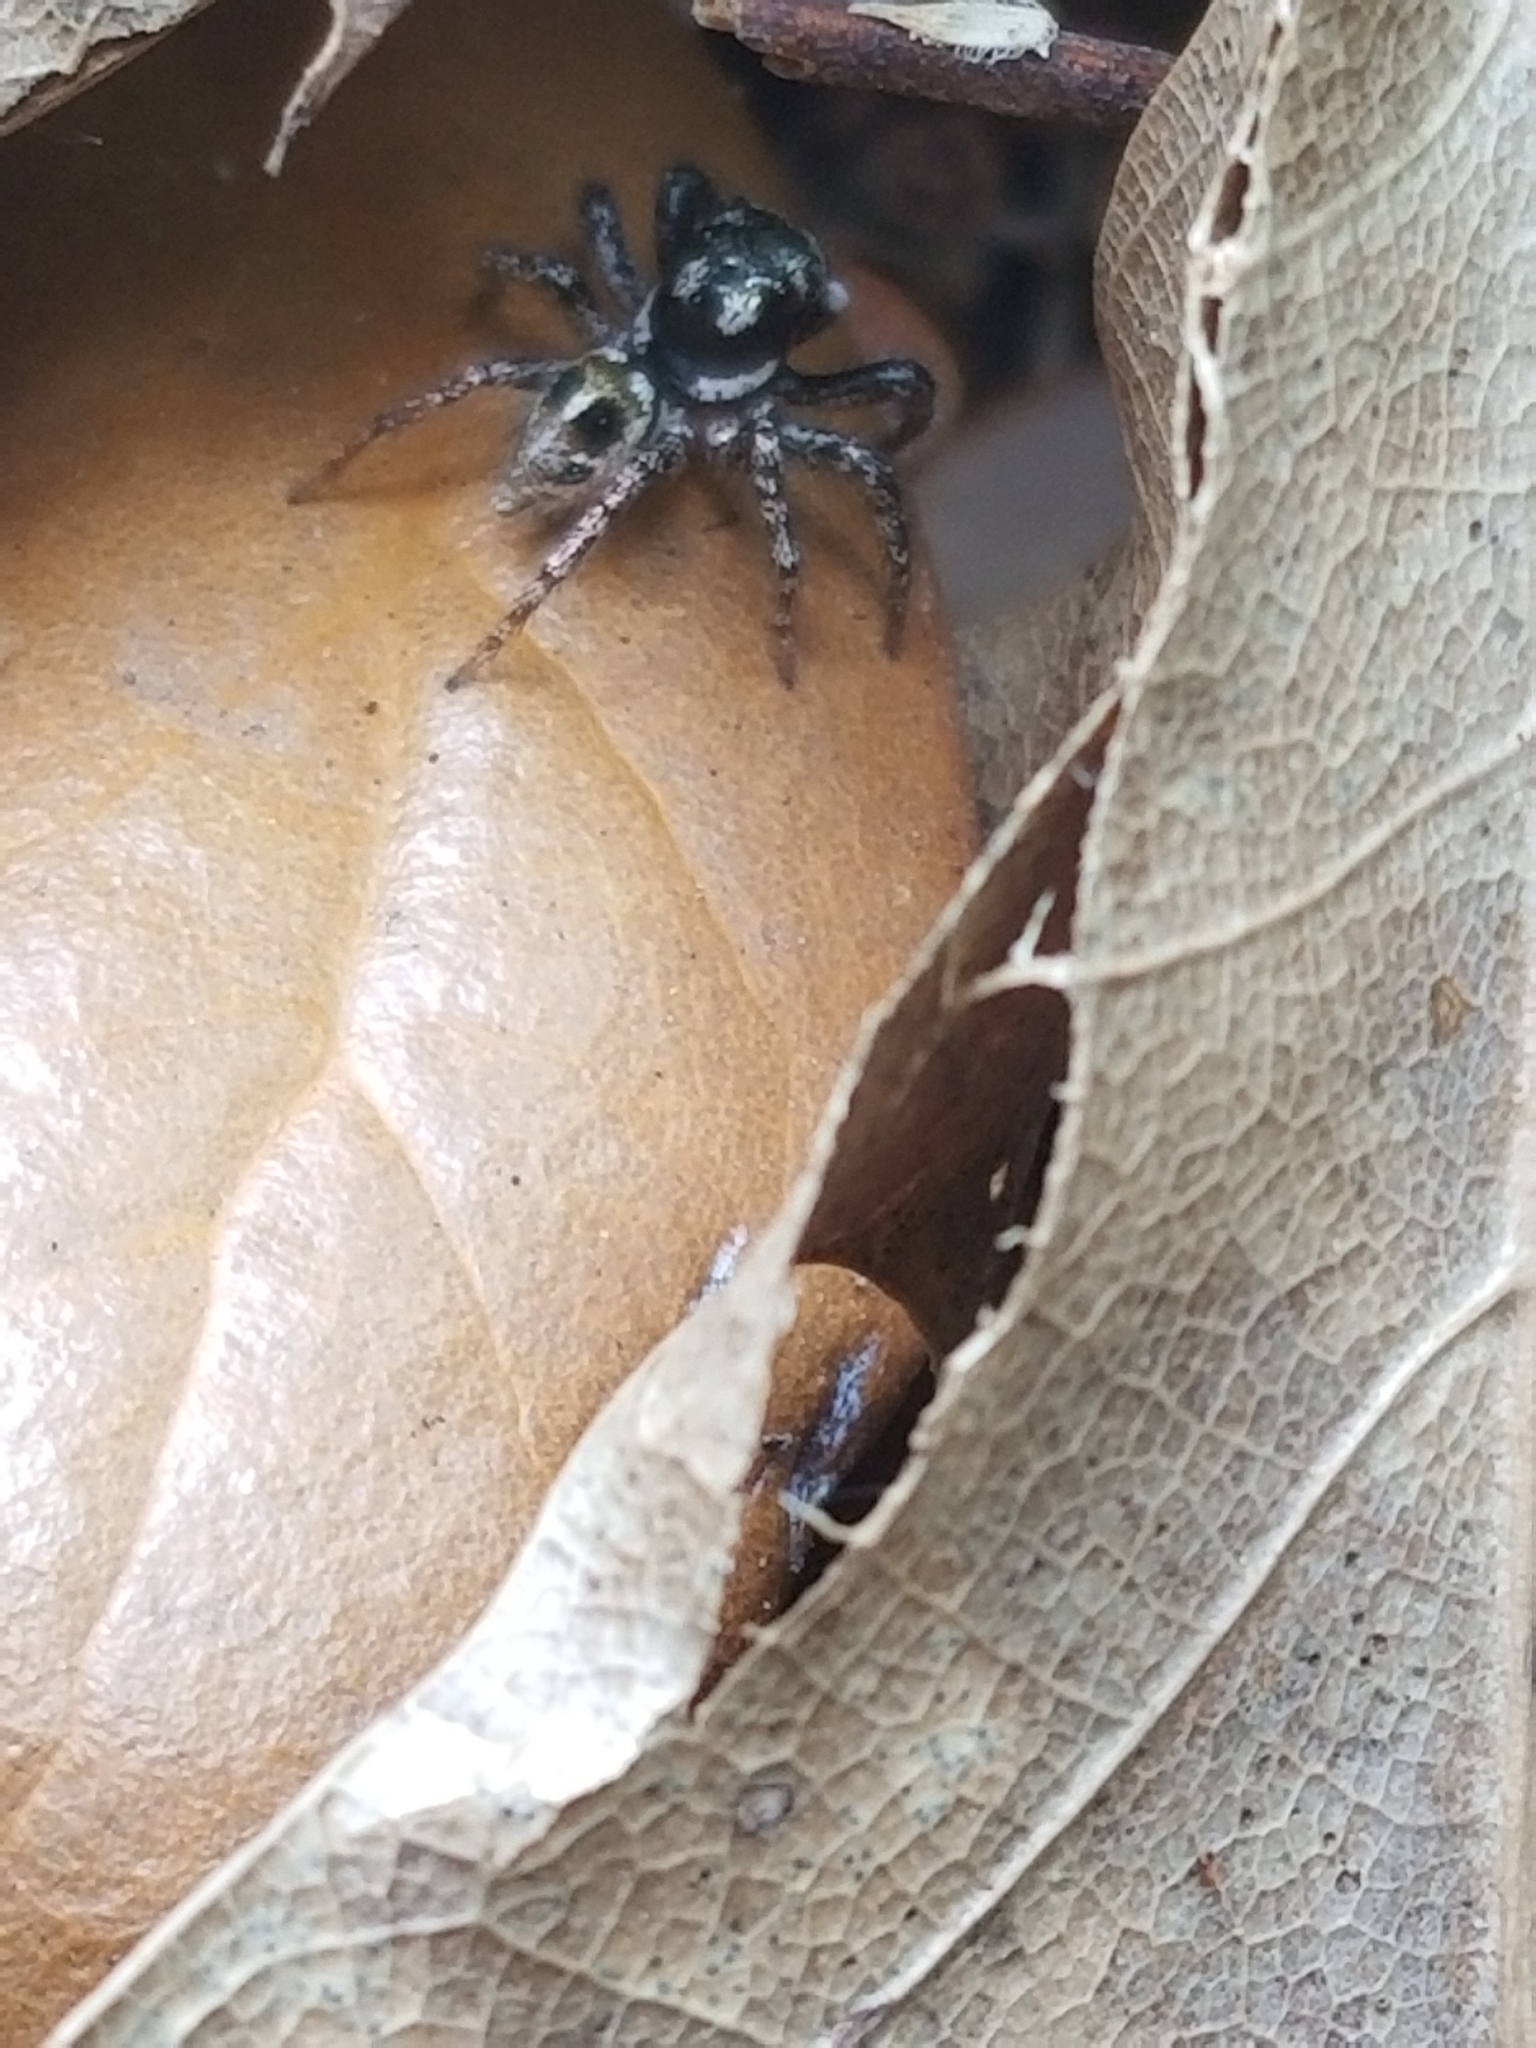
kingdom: Animalia
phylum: Arthropoda
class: Arachnida
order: Araneae
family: Salticidae
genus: Anasaitis
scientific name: Anasaitis canosa
